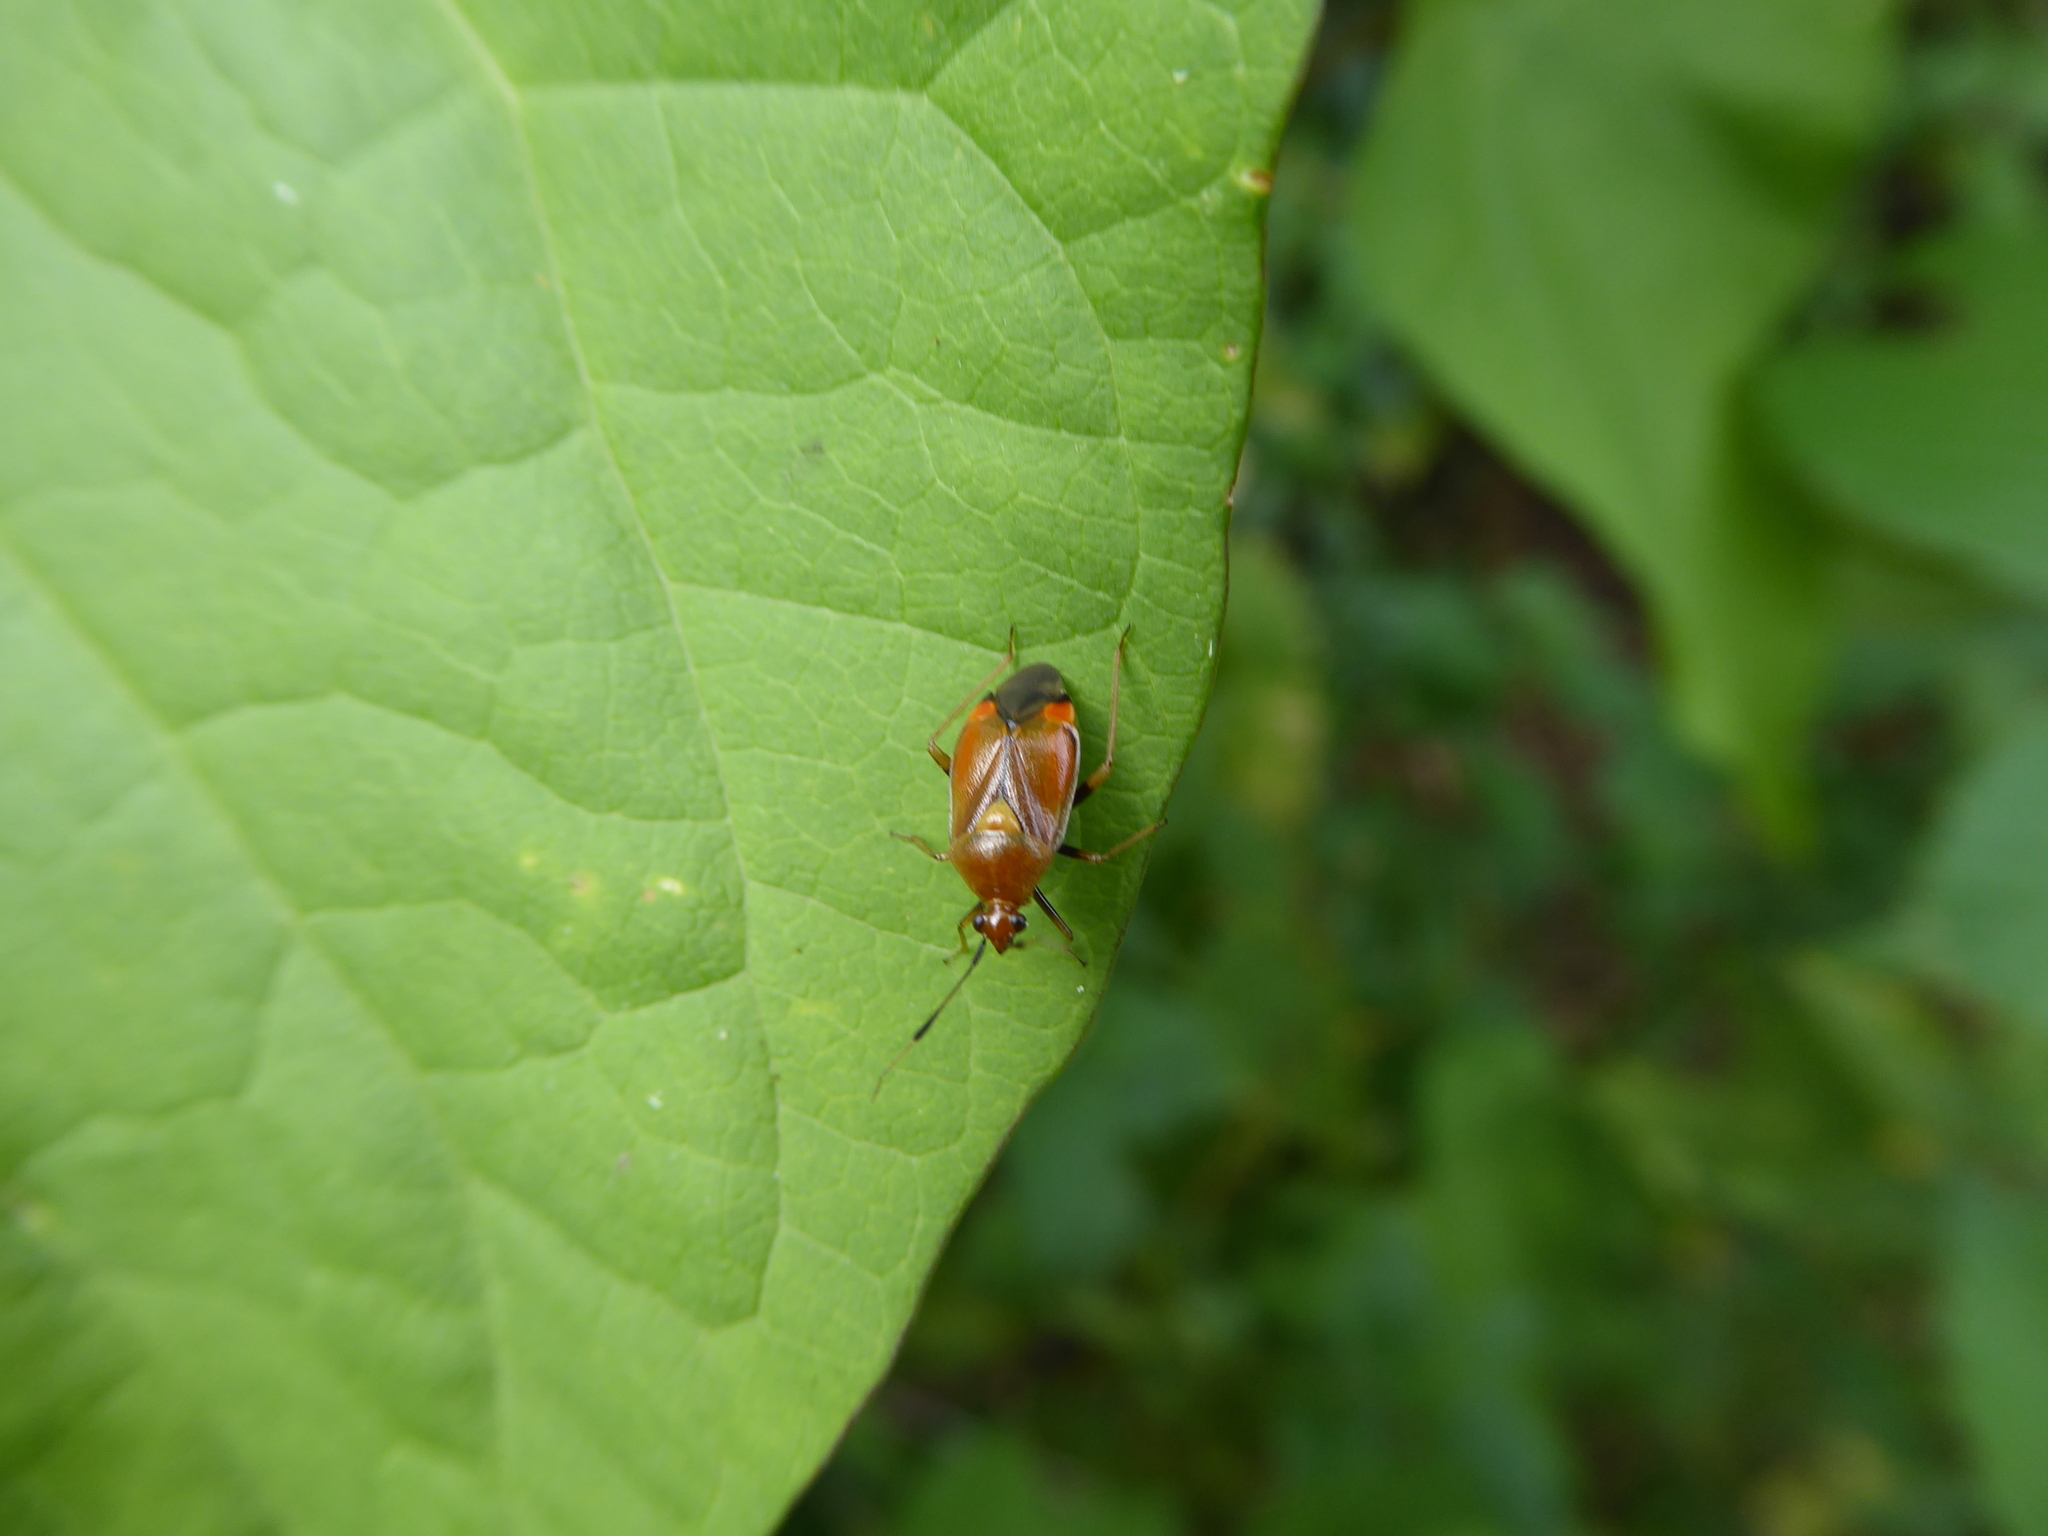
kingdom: Animalia
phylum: Arthropoda
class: Insecta
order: Hemiptera
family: Miridae
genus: Deraeocoris
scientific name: Deraeocoris ruber
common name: Plant bug
